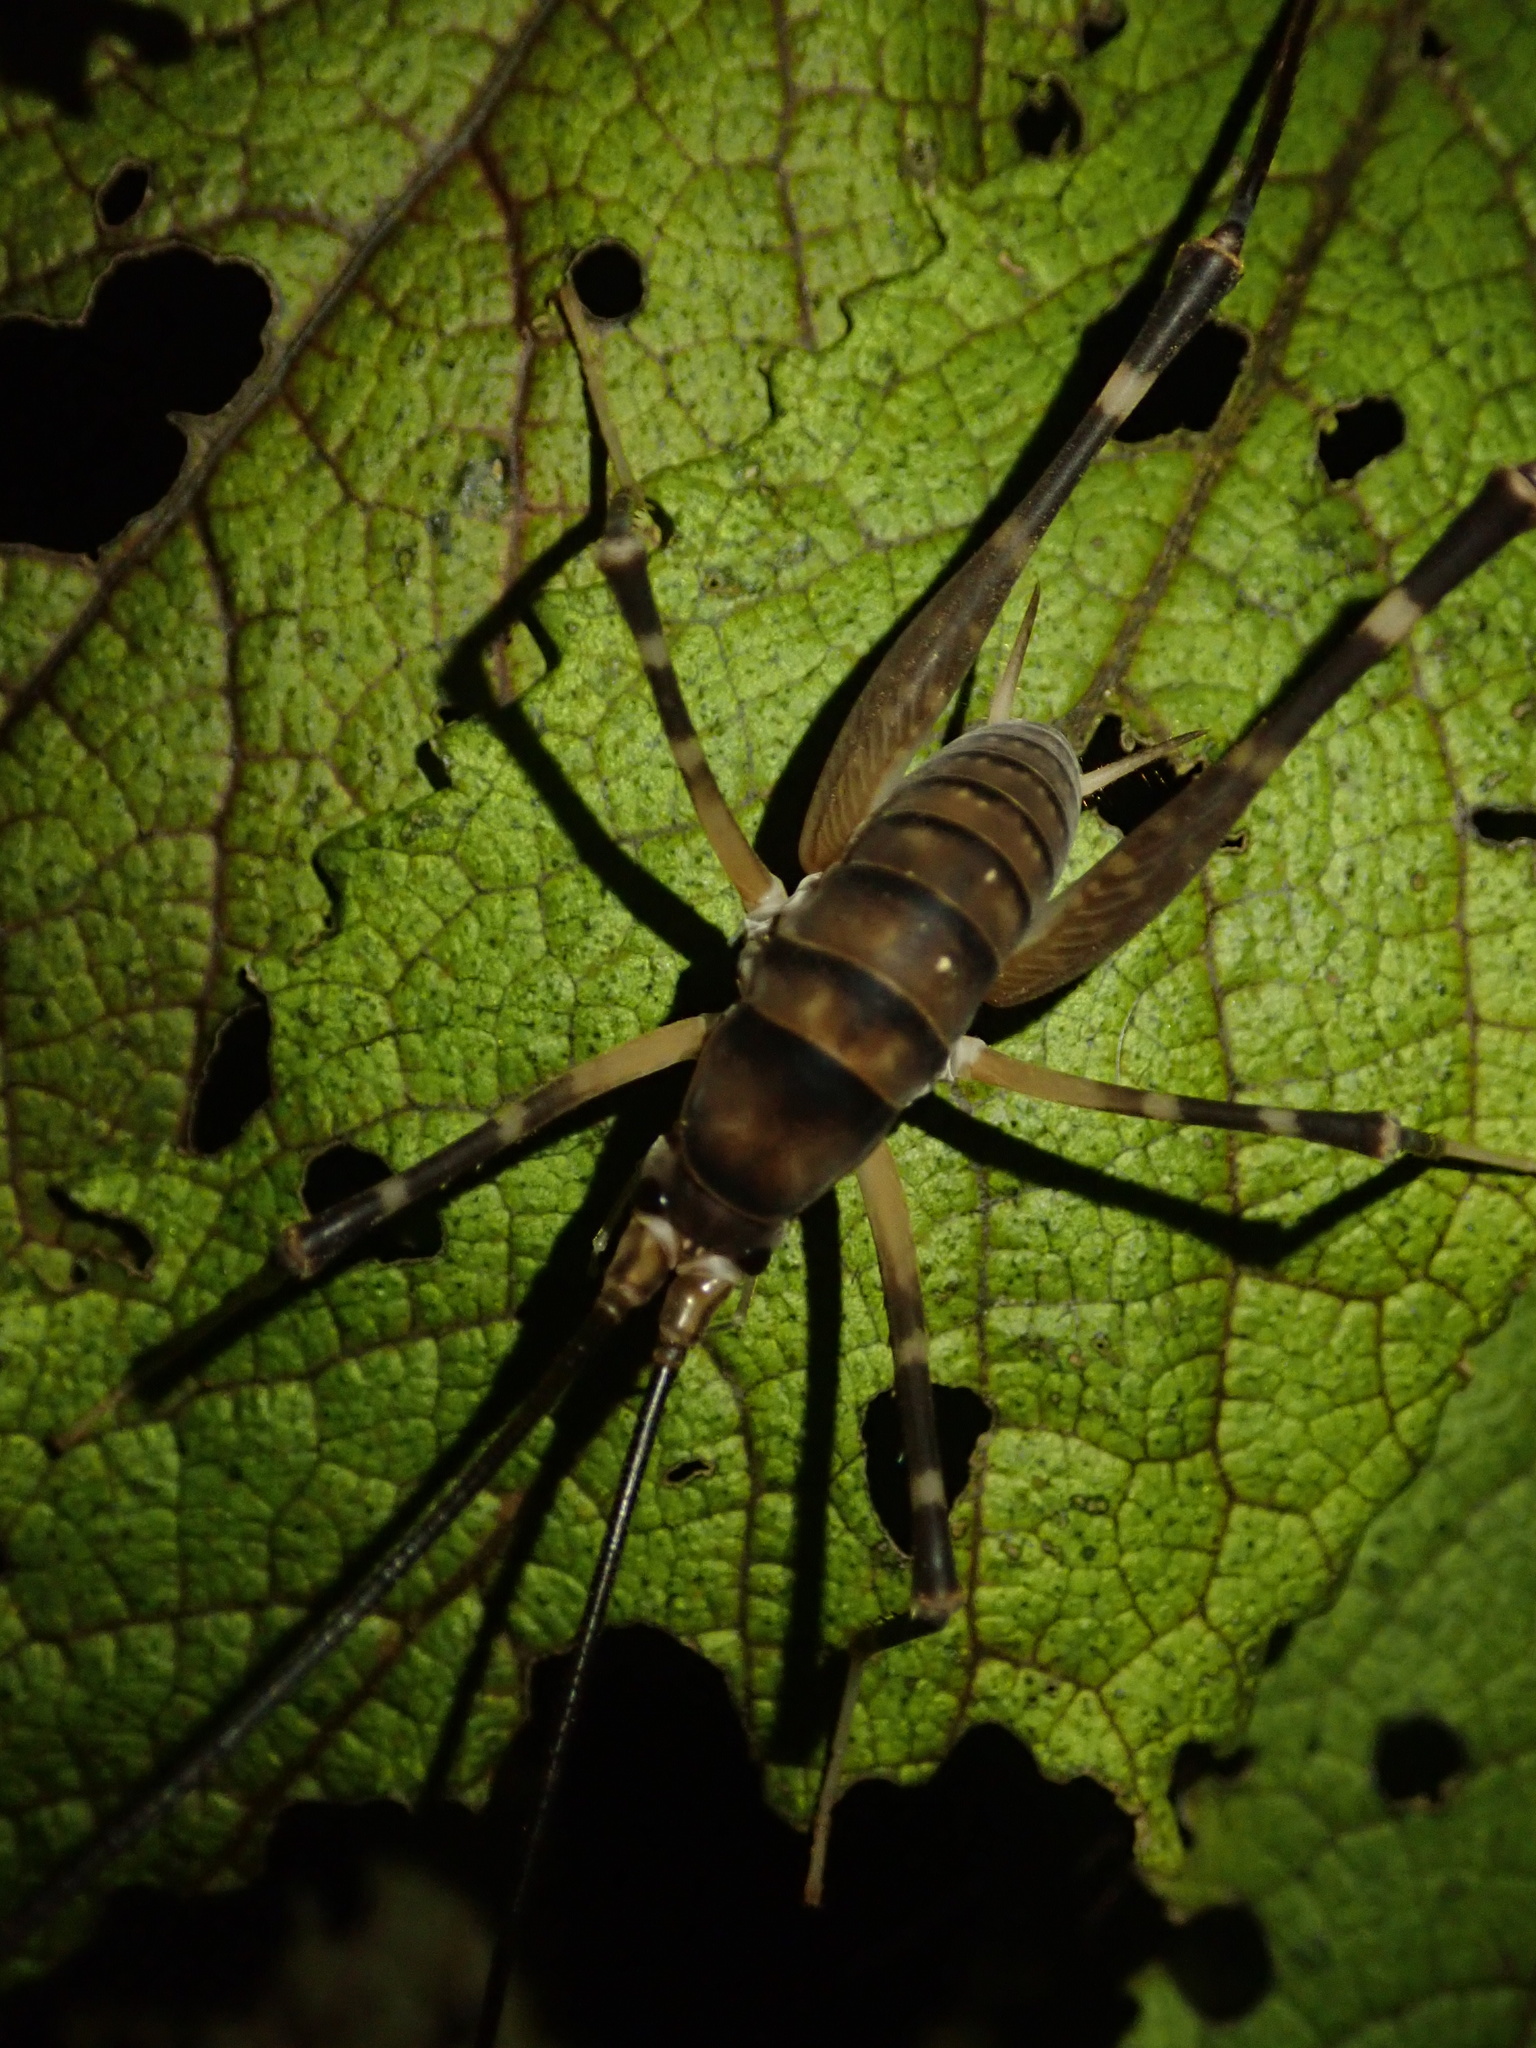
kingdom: Animalia
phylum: Arthropoda
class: Insecta
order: Orthoptera
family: Rhaphidophoridae
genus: Pachyrhamma
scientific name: Pachyrhamma edwardsii
